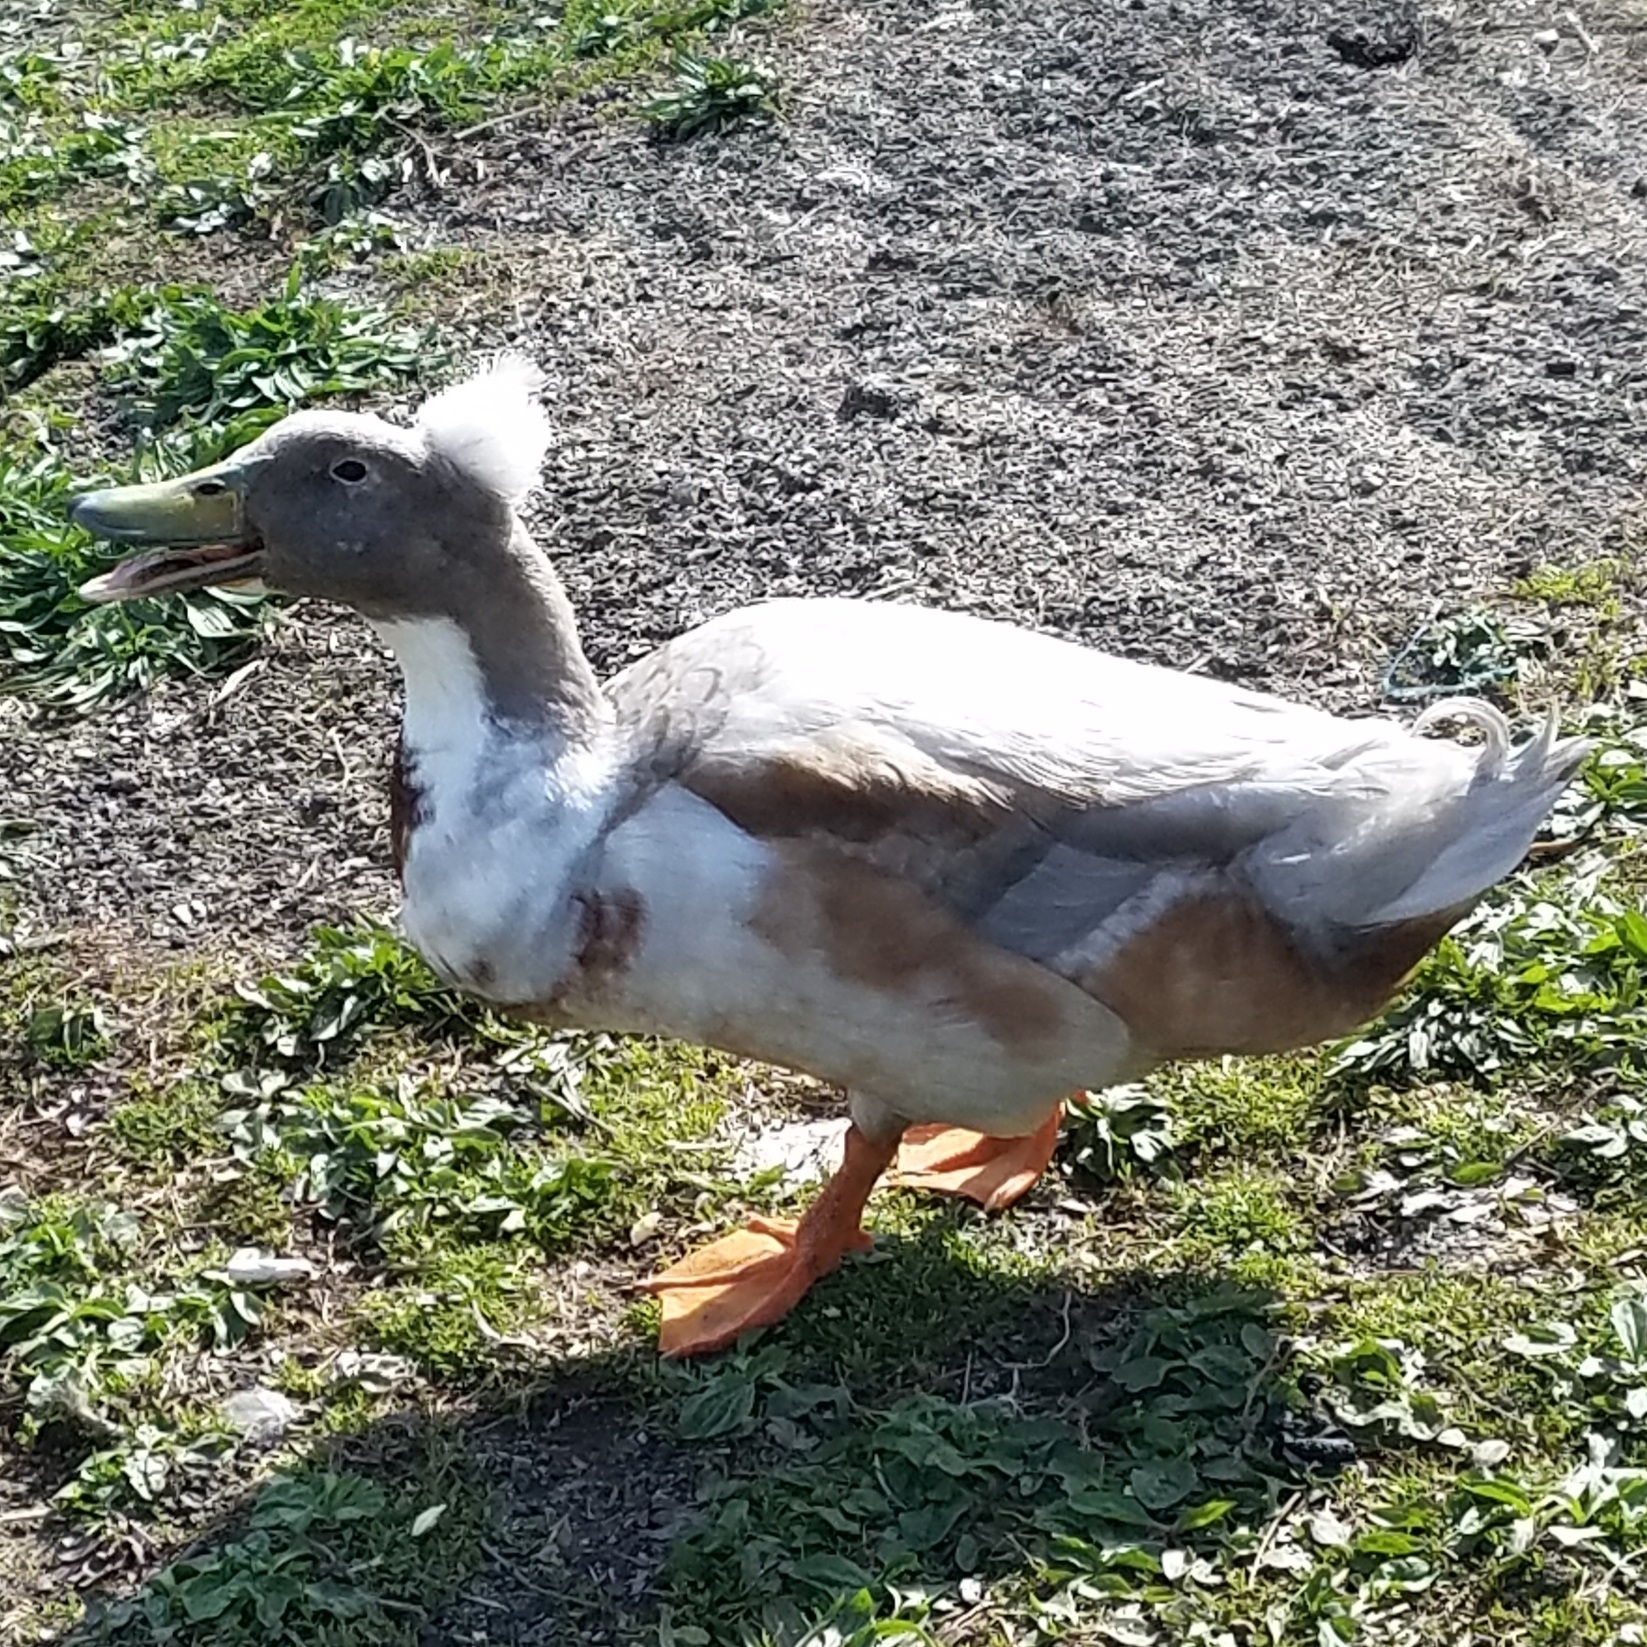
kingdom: Animalia
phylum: Chordata
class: Aves
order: Anseriformes
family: Anatidae
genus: Anas
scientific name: Anas platyrhynchos
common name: Mallard
